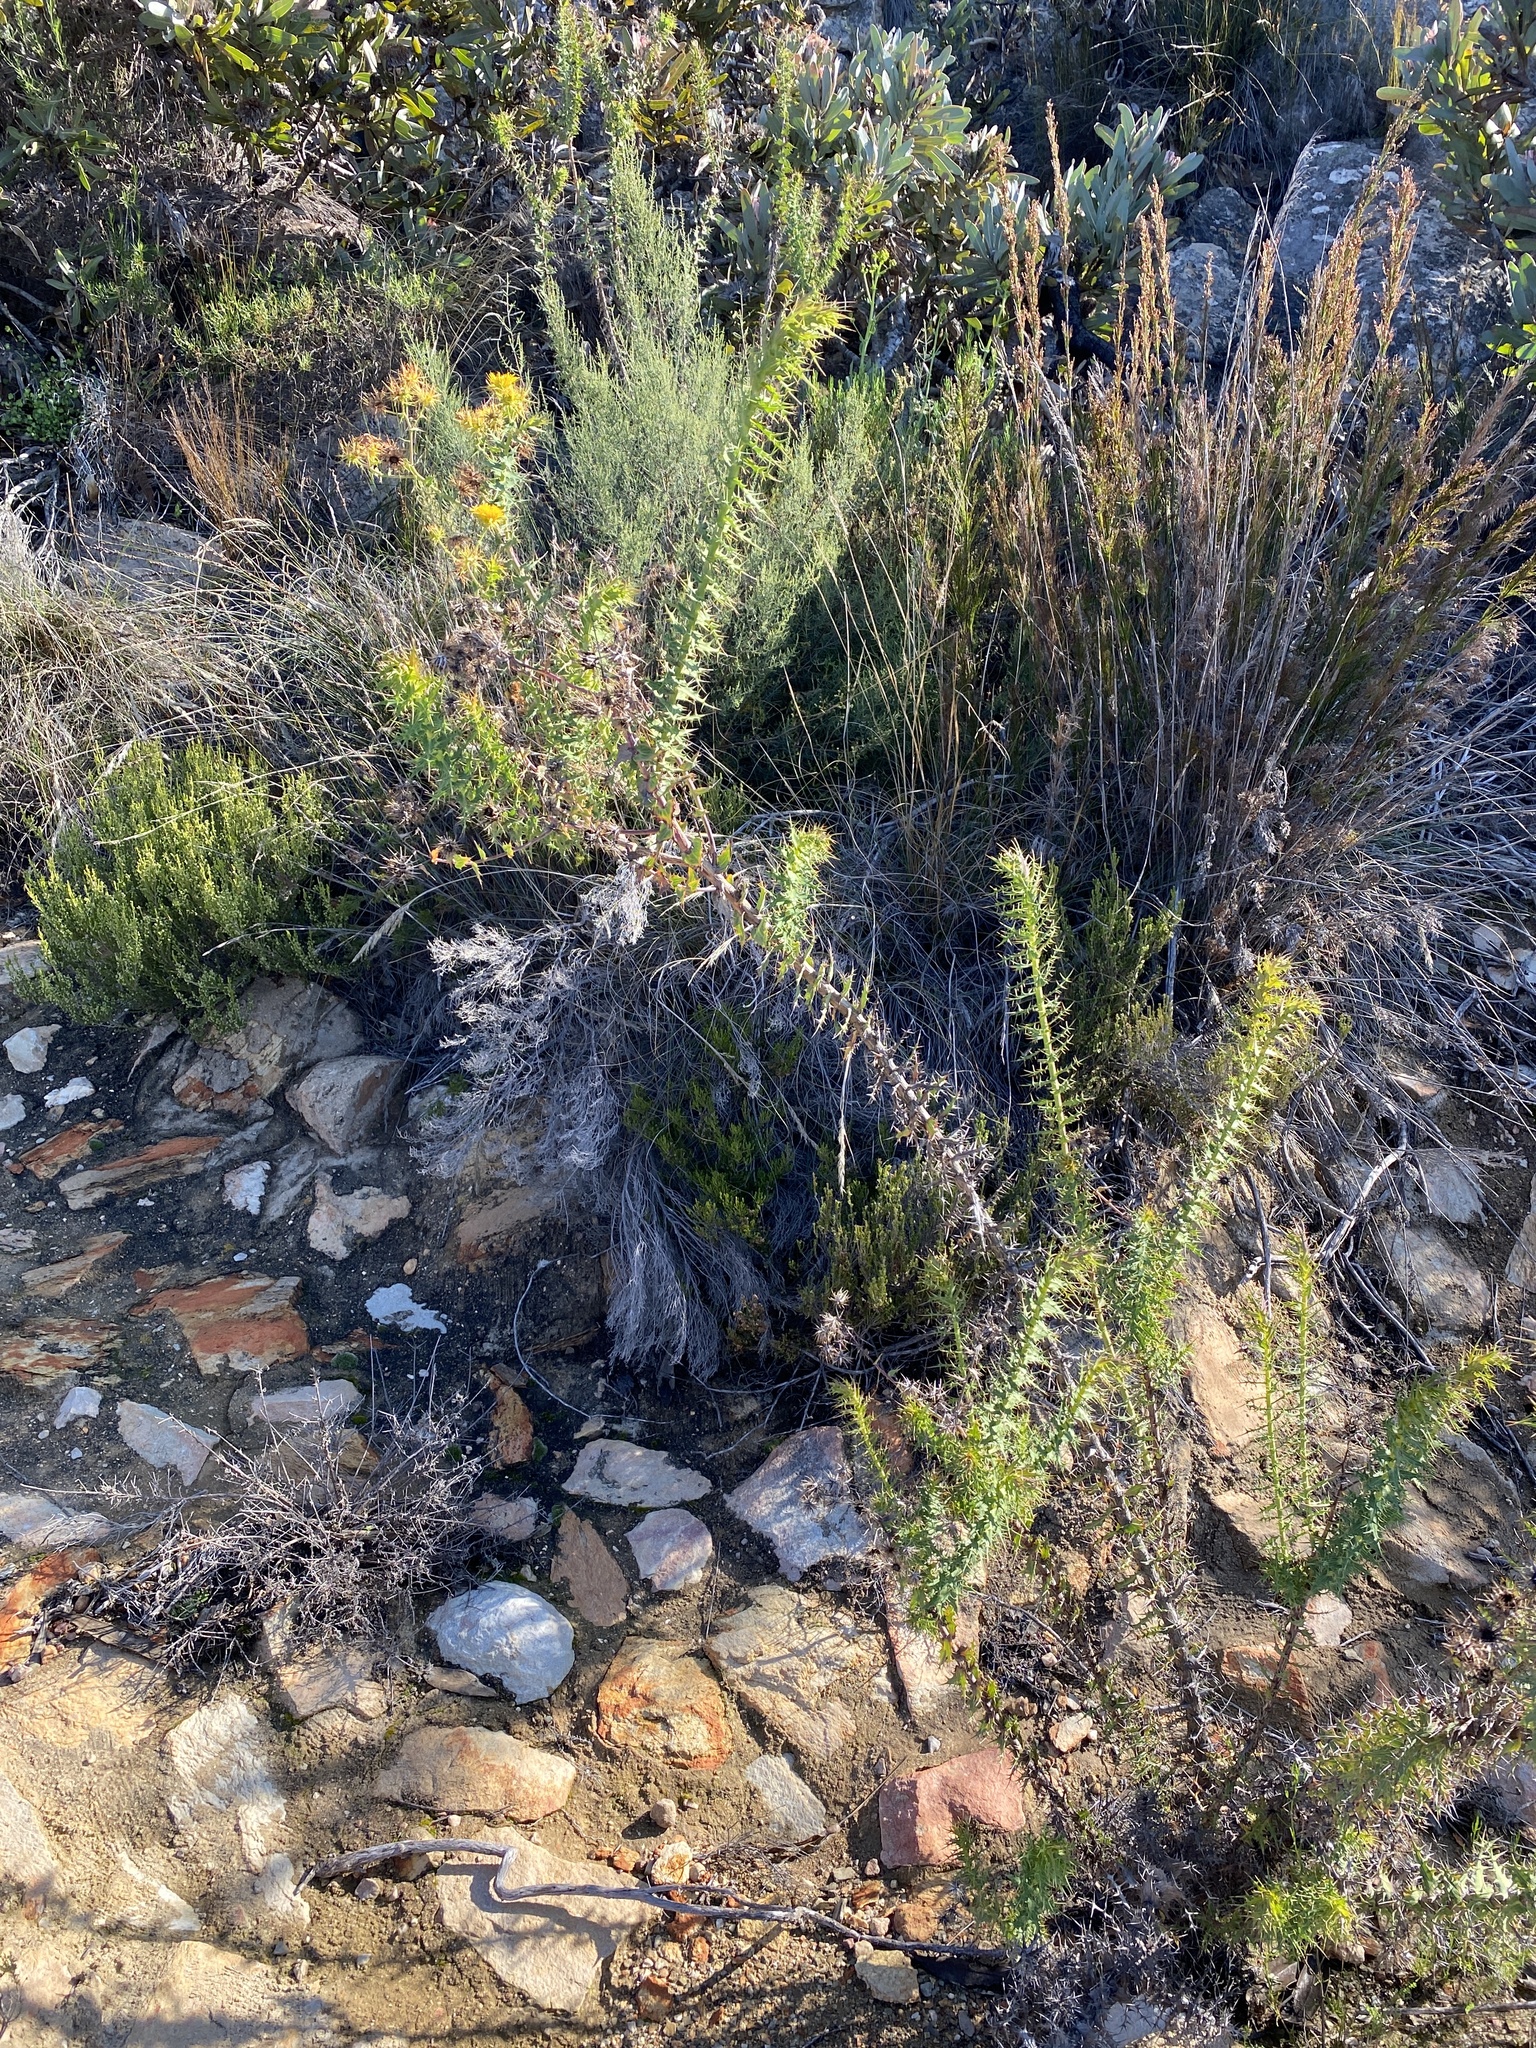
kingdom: Plantae
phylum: Tracheophyta
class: Magnoliopsida
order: Asterales
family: Asteraceae
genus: Berkheya
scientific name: Berkheya cruciata
